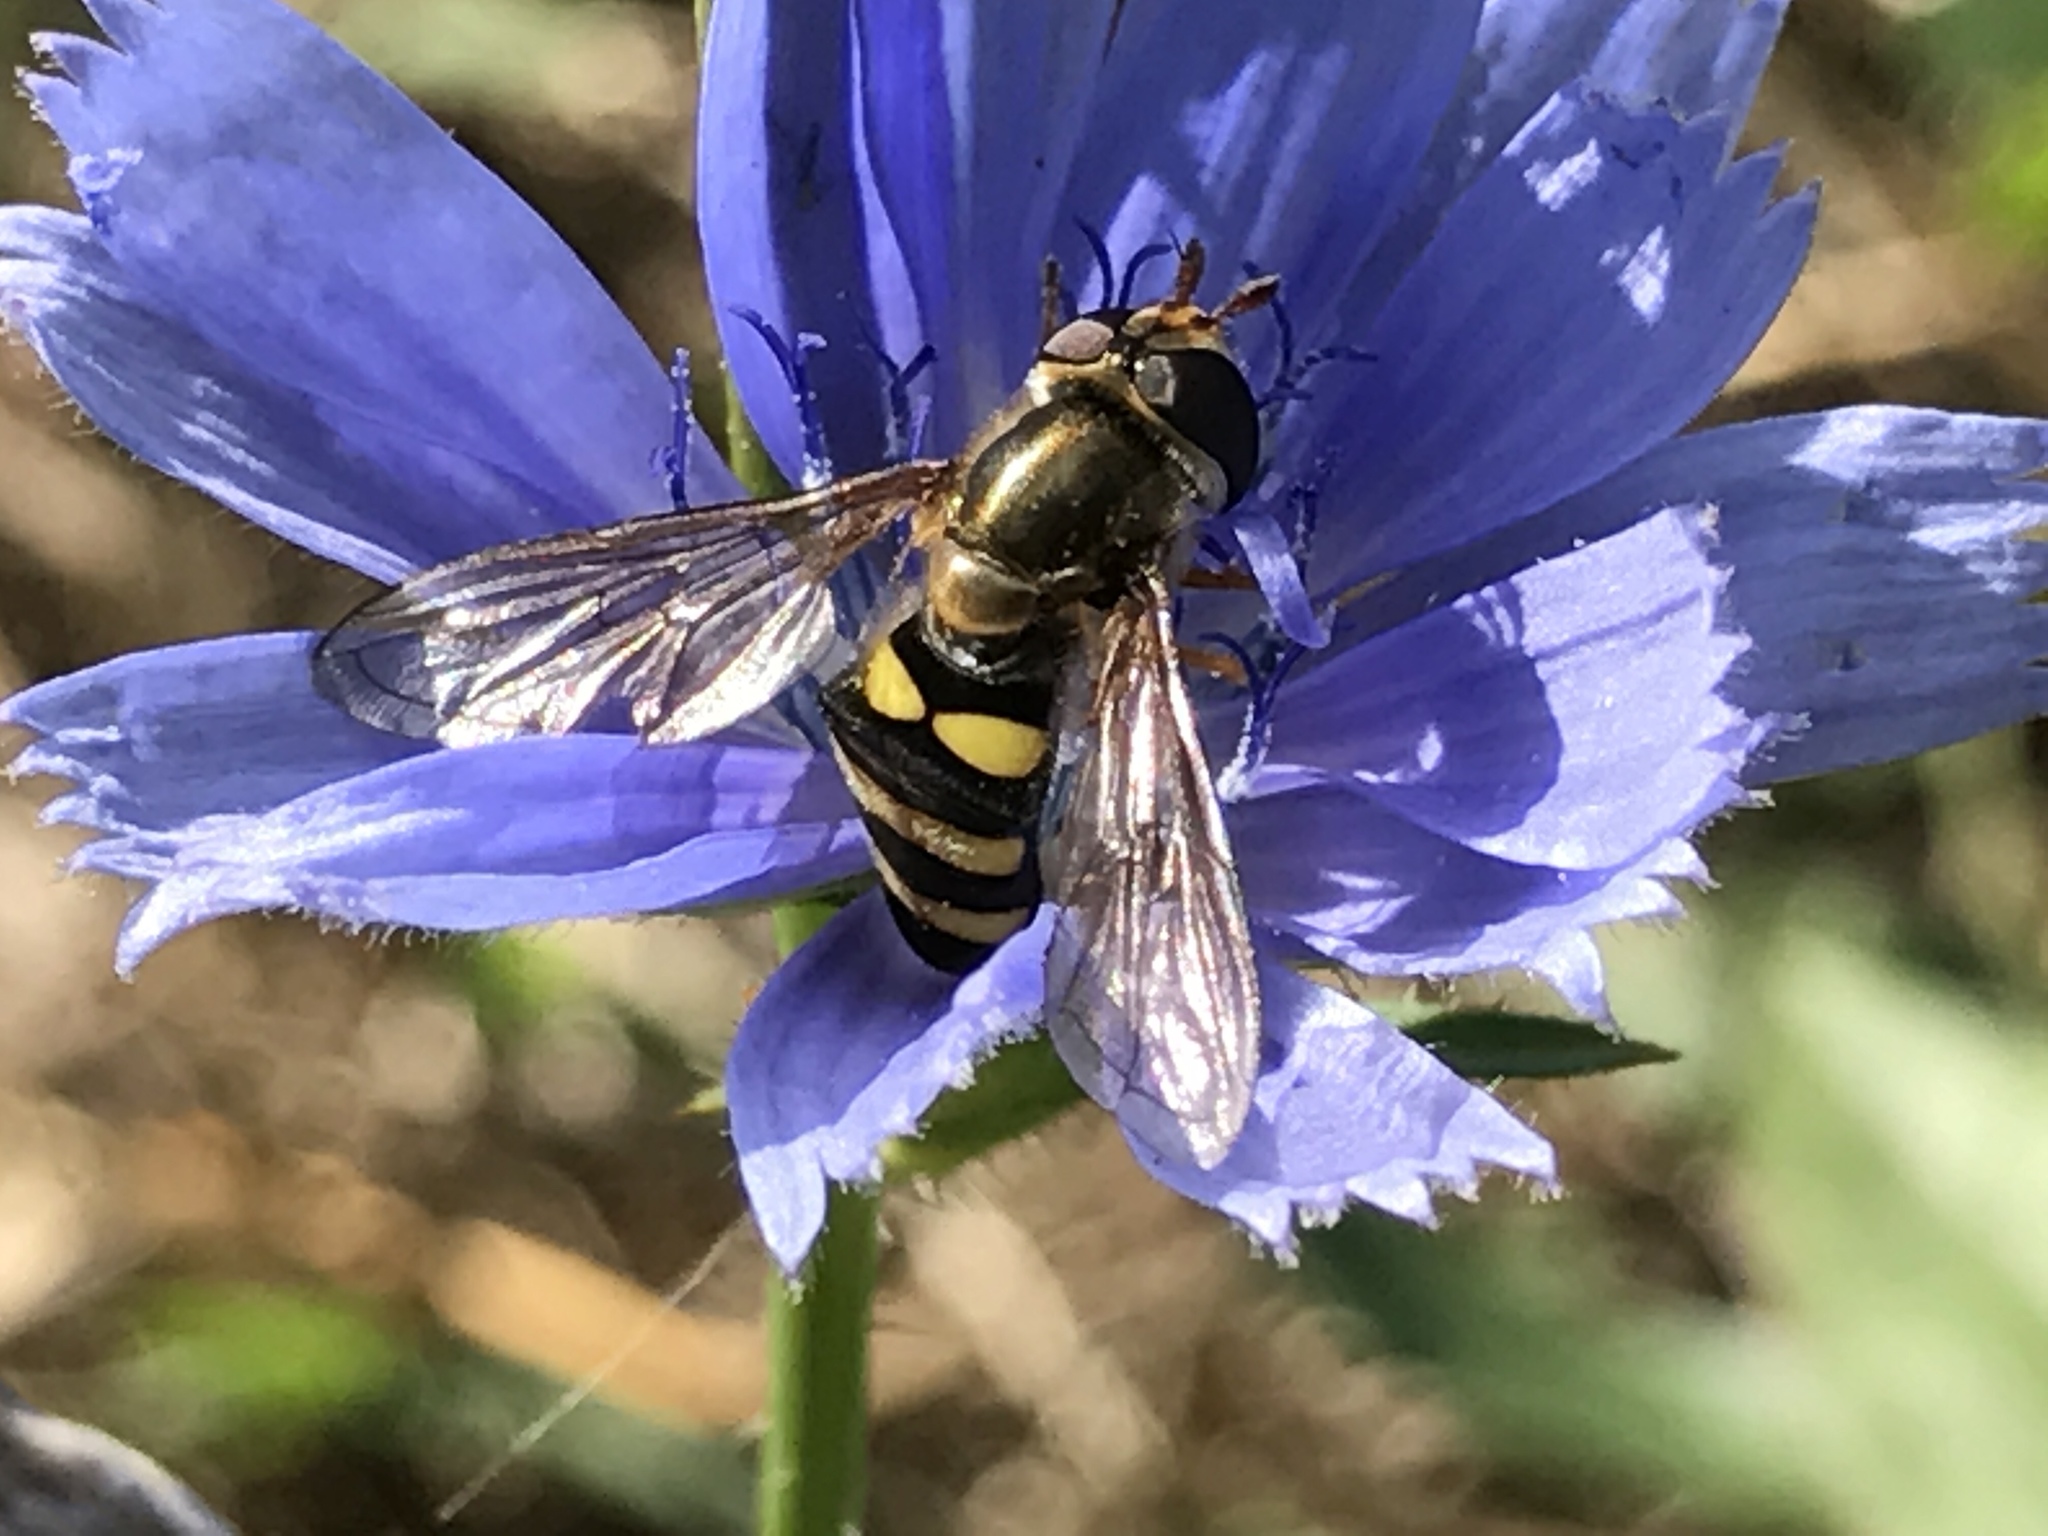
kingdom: Animalia
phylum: Arthropoda
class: Insecta
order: Diptera
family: Syrphidae
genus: Eupeodes
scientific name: Eupeodes
